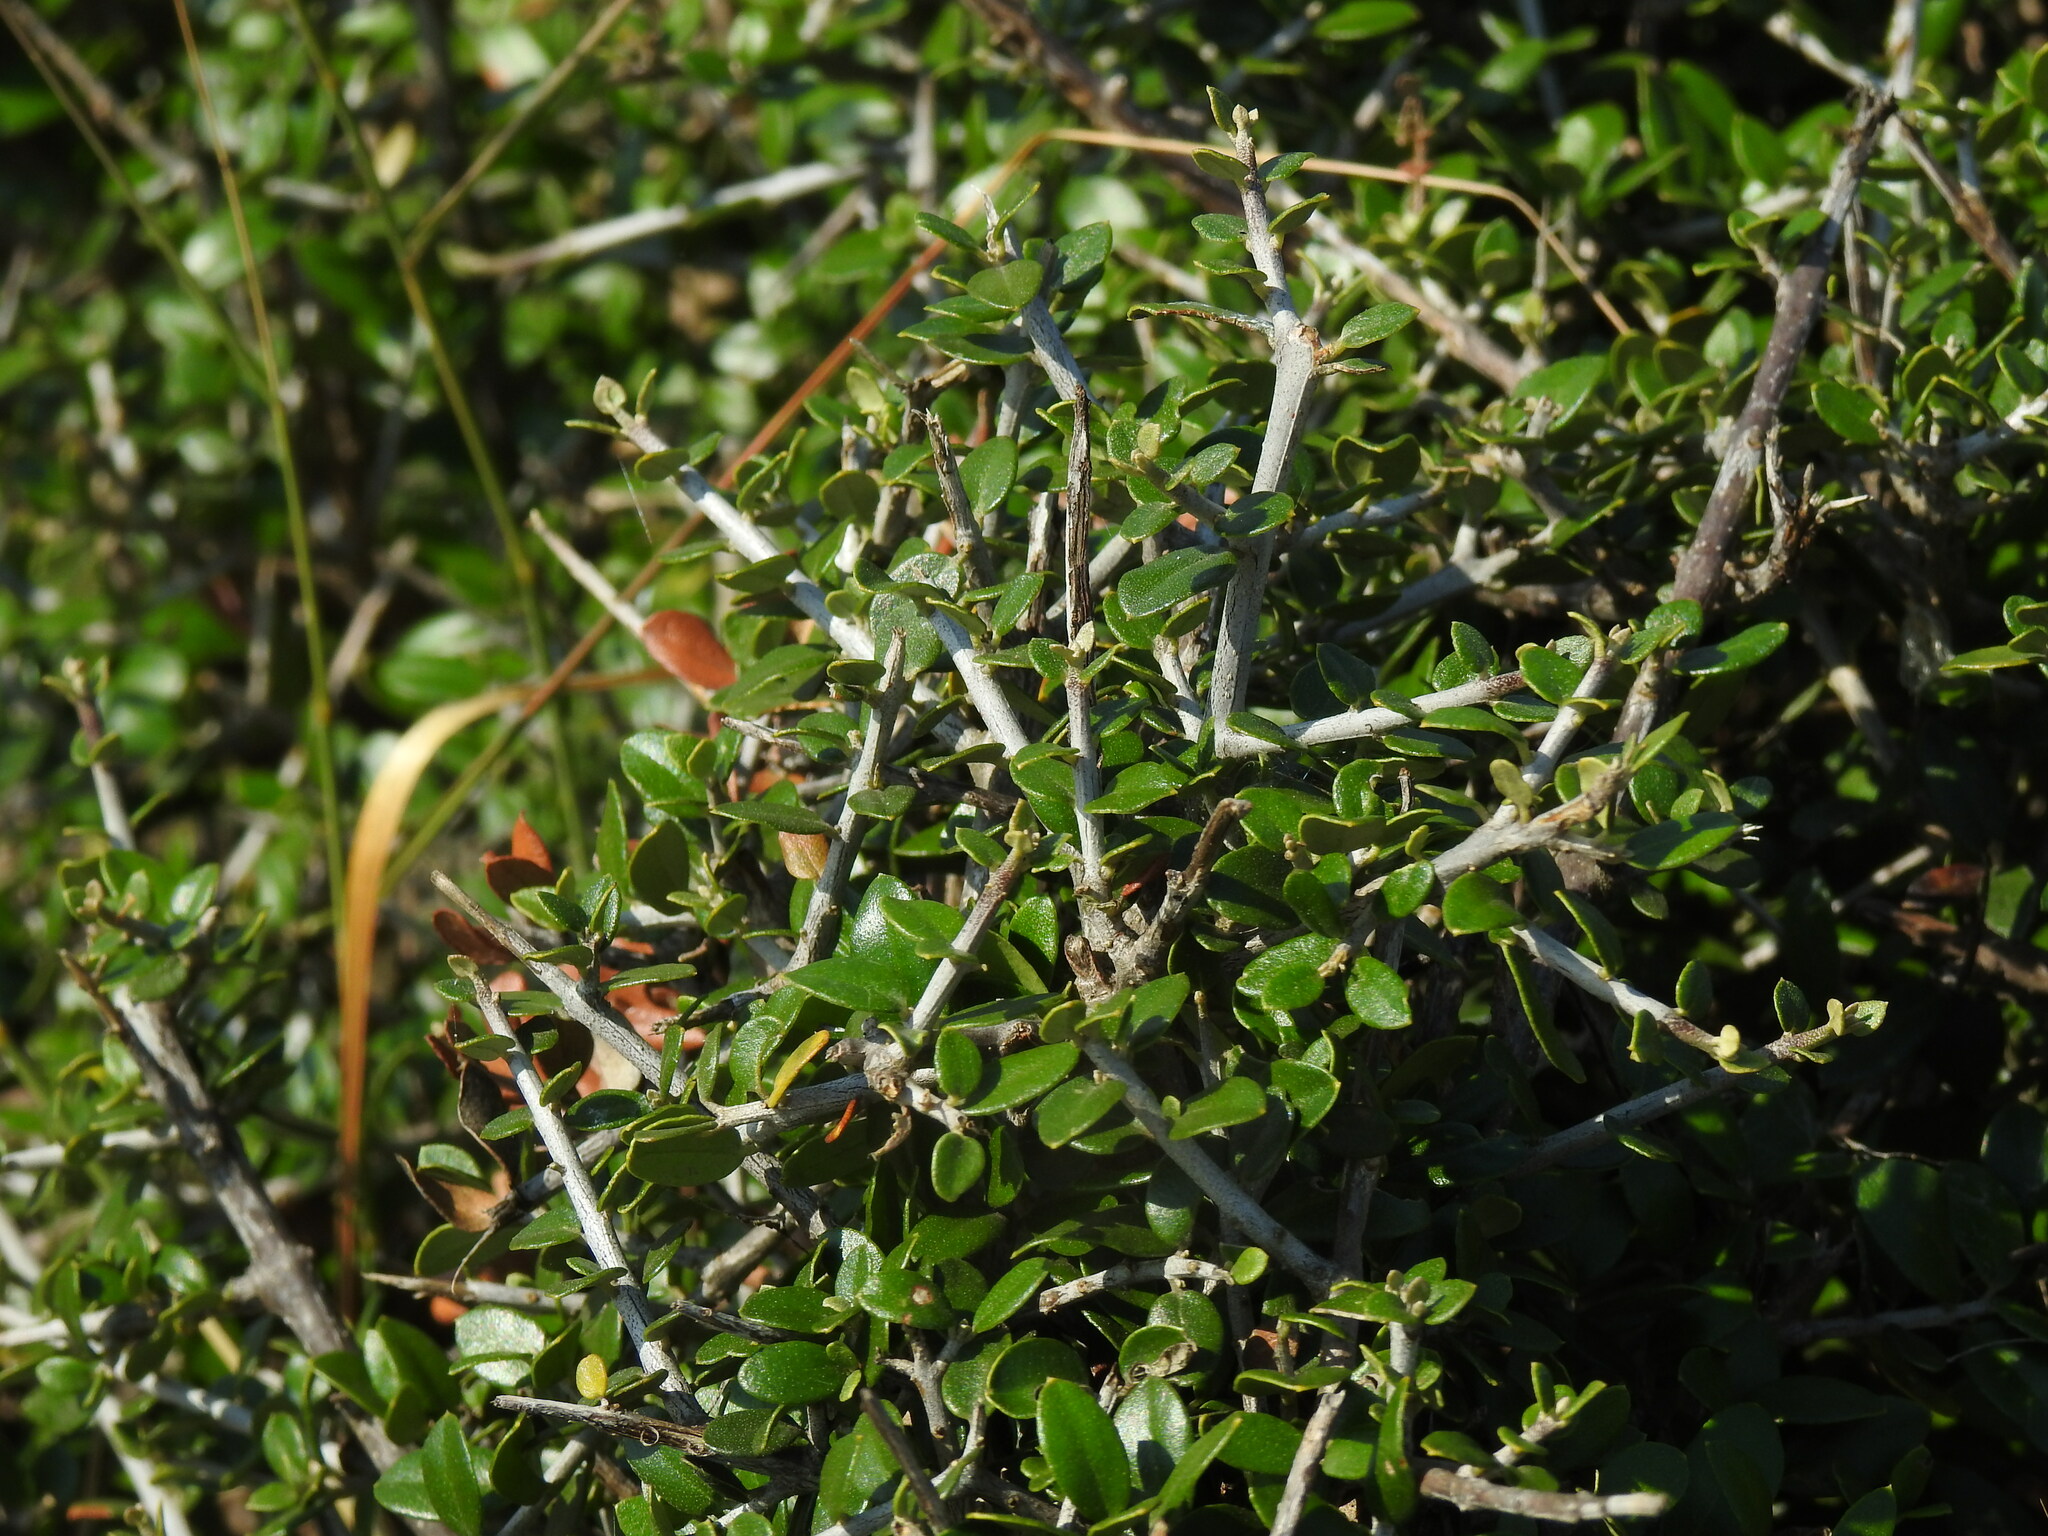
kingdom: Plantae
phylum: Tracheophyta
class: Magnoliopsida
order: Lamiales
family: Oleaceae
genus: Olea
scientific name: Olea europaea
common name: Olive
